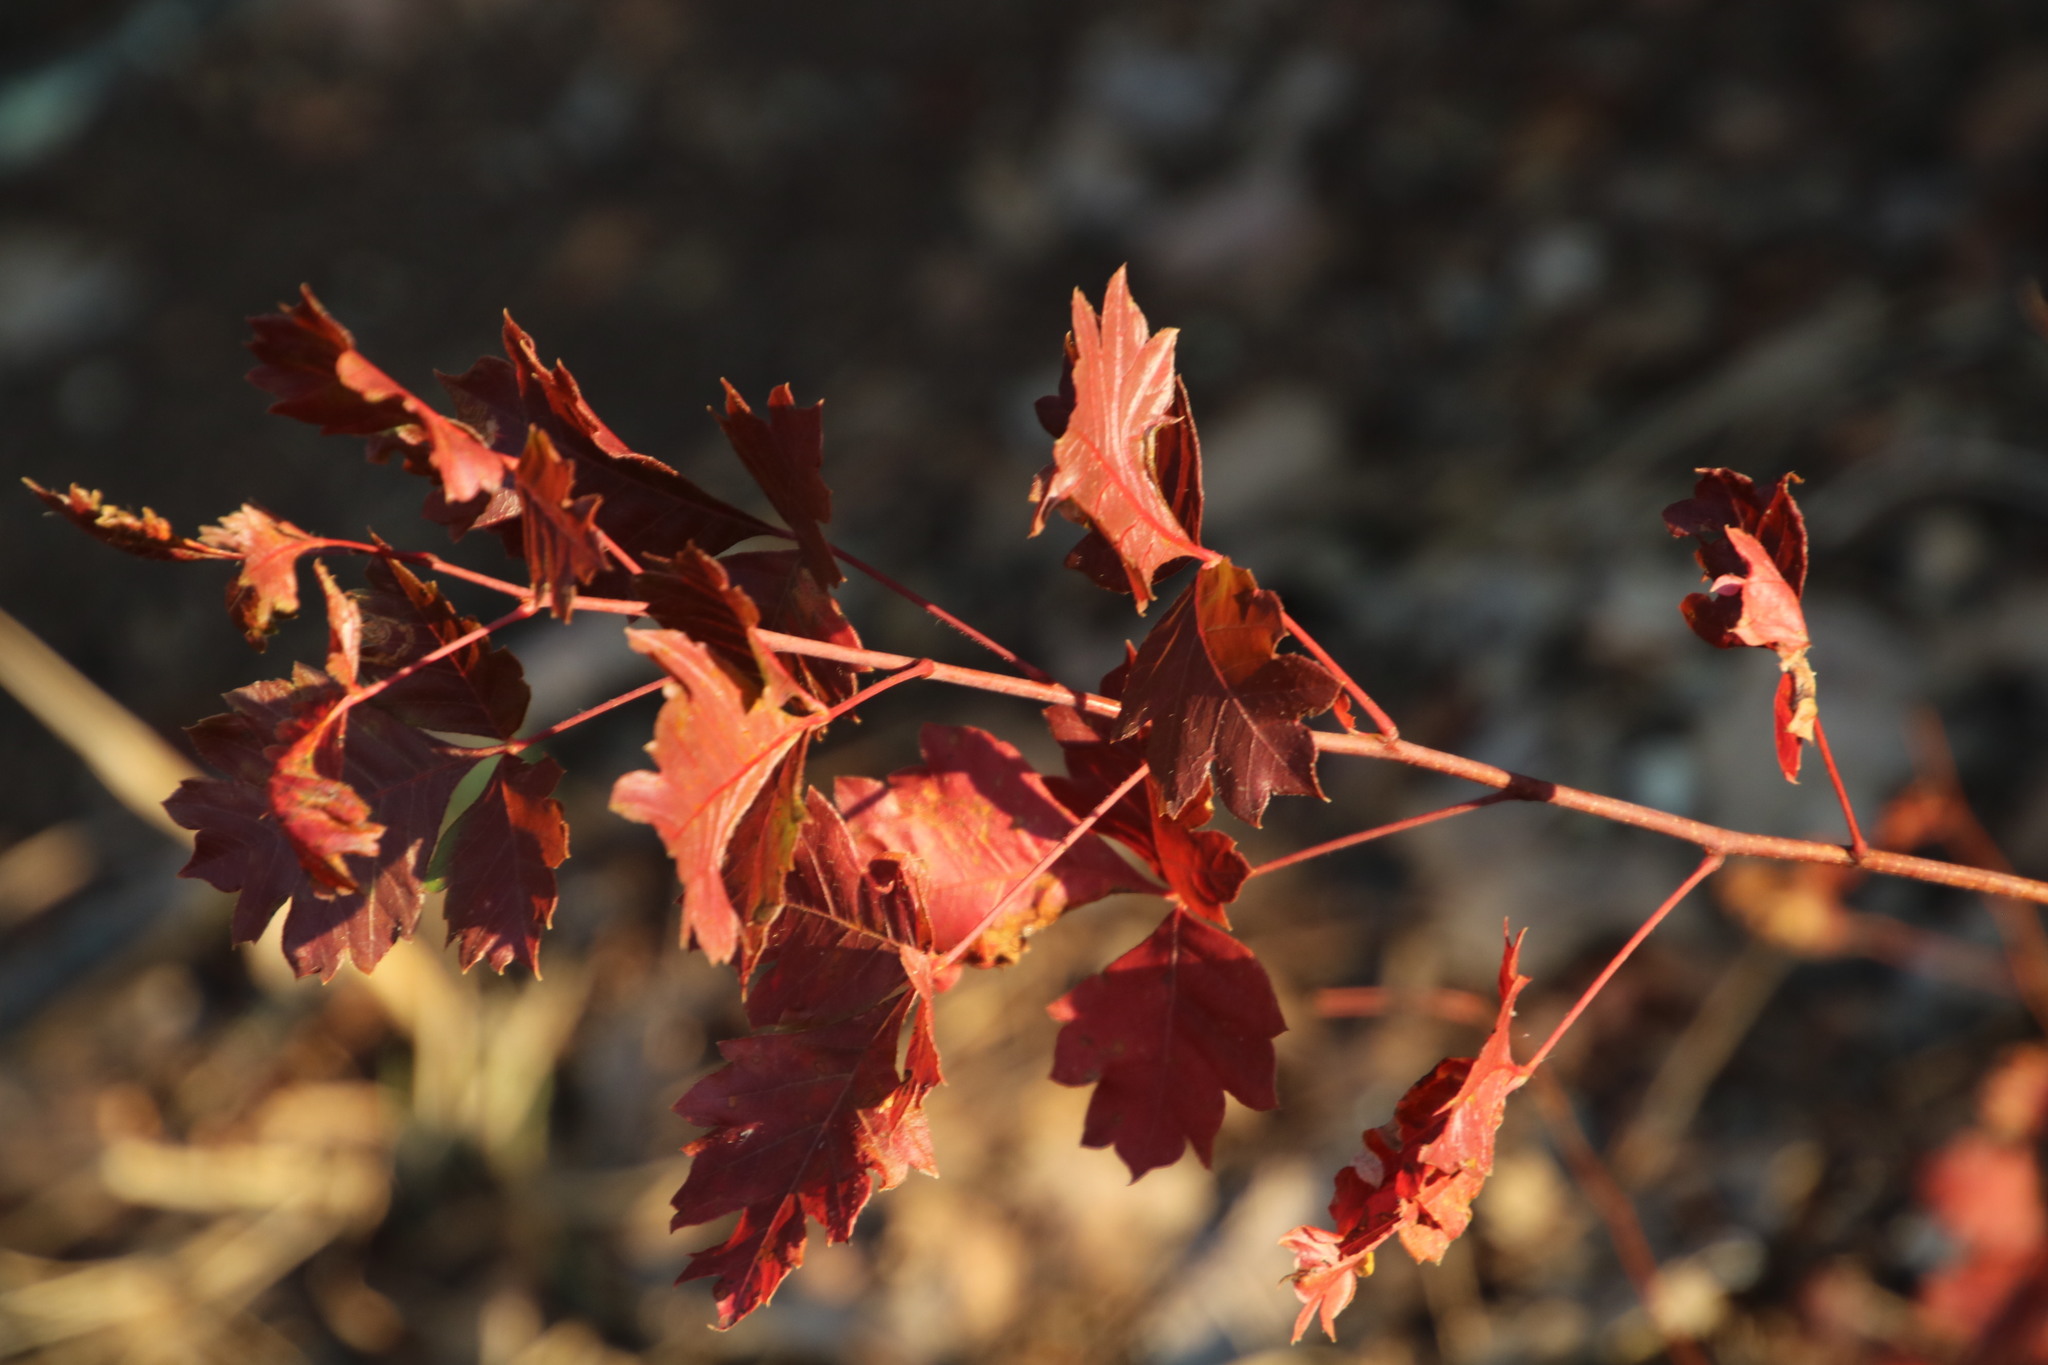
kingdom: Plantae
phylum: Tracheophyta
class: Magnoliopsida
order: Sapindales
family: Anacardiaceae
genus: Searsia
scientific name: Searsia dentata
